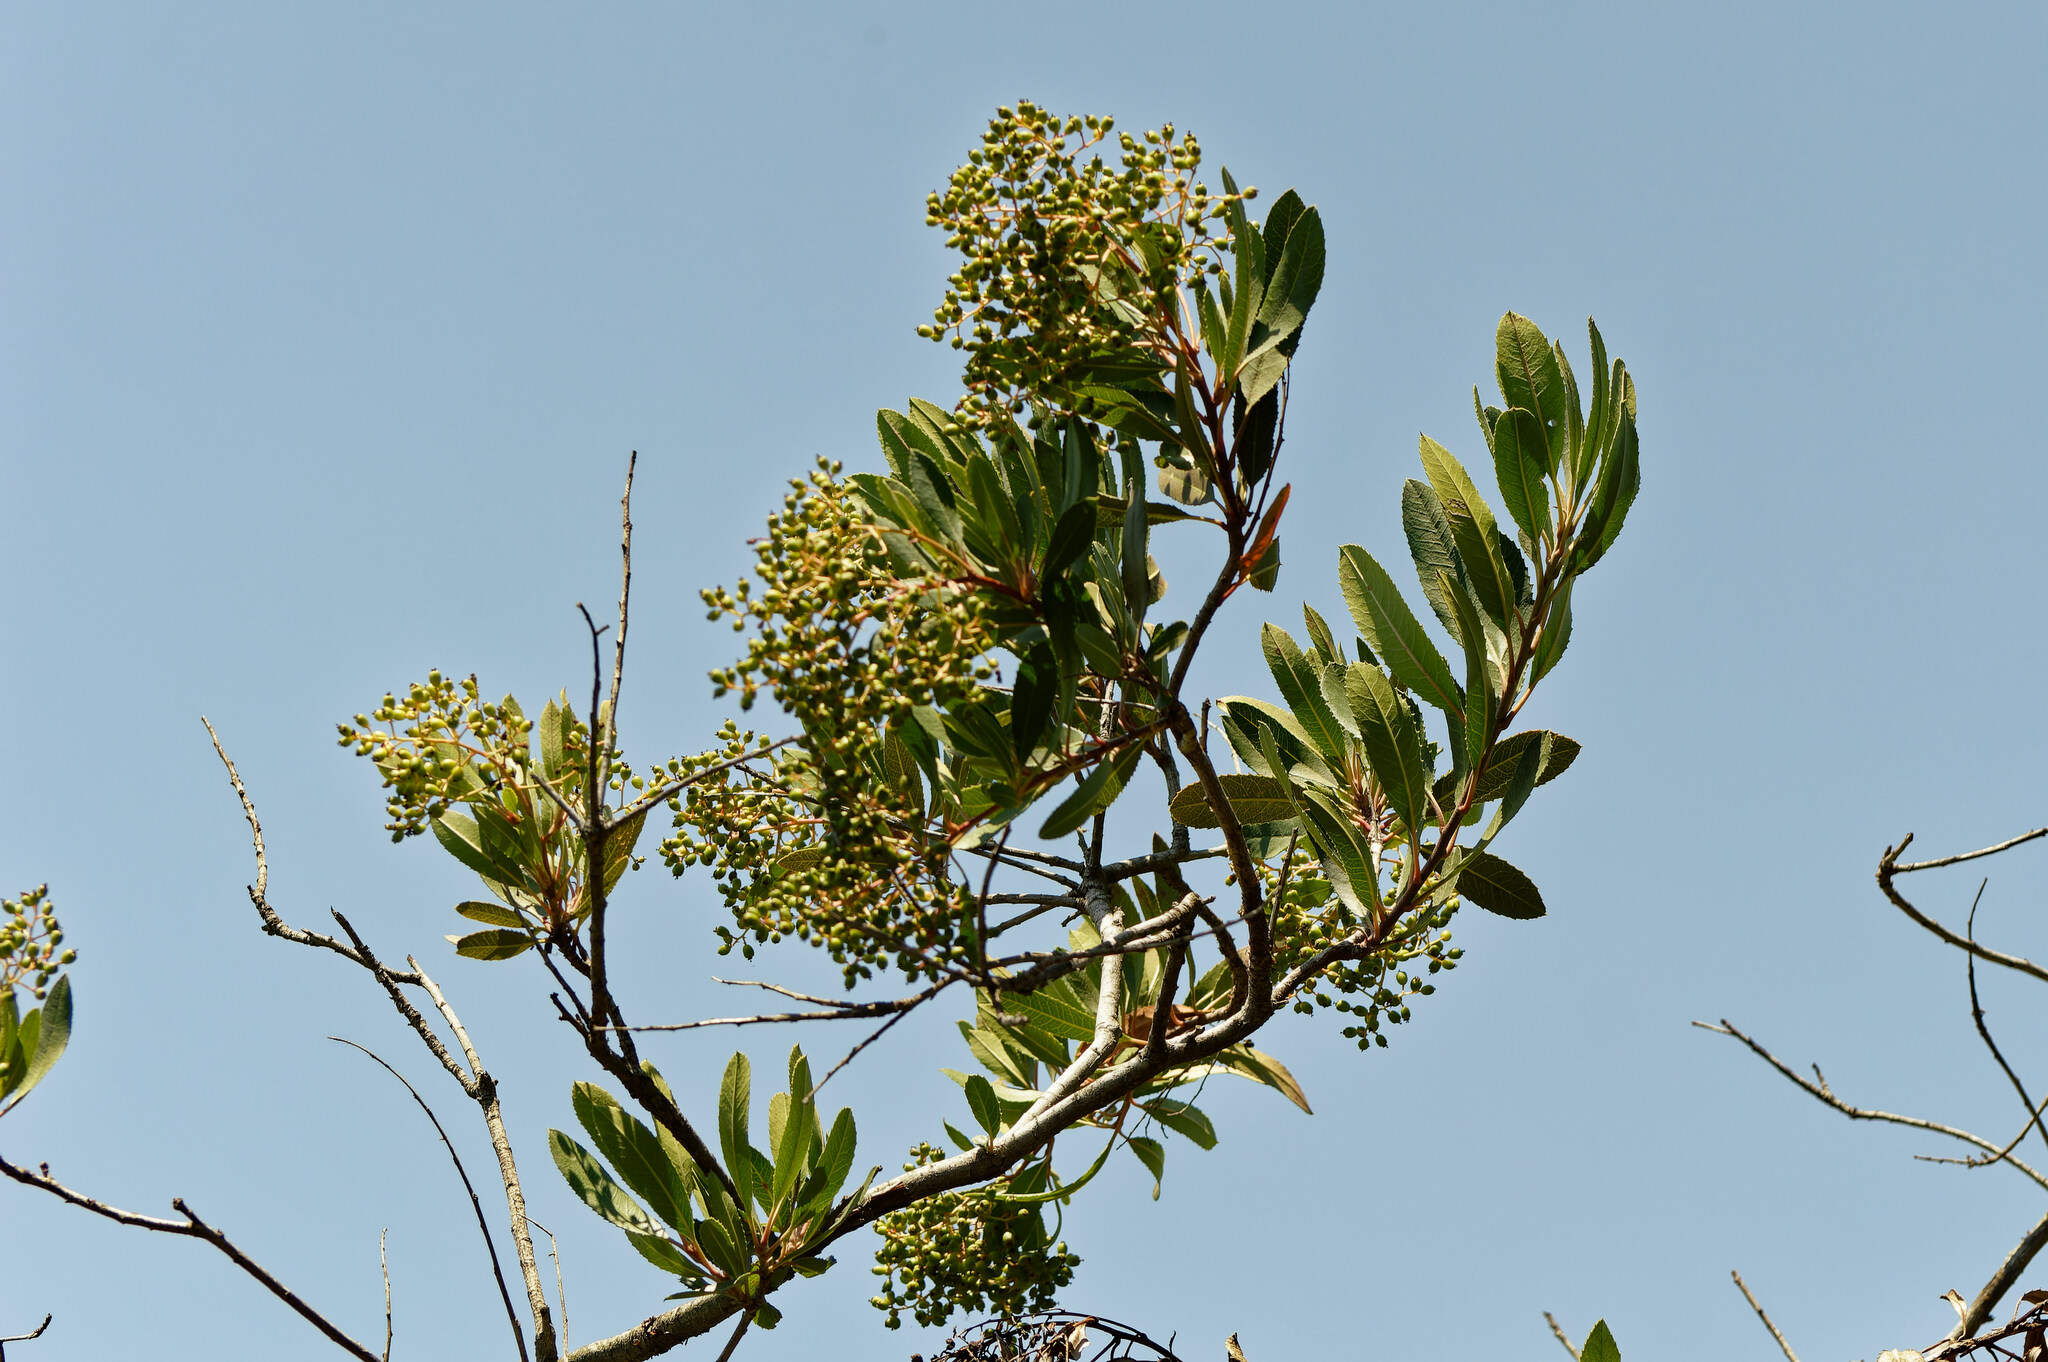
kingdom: Plantae
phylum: Tracheophyta
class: Magnoliopsida
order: Rosales
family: Rosaceae
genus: Heteromeles
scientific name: Heteromeles arbutifolia
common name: California-holly
